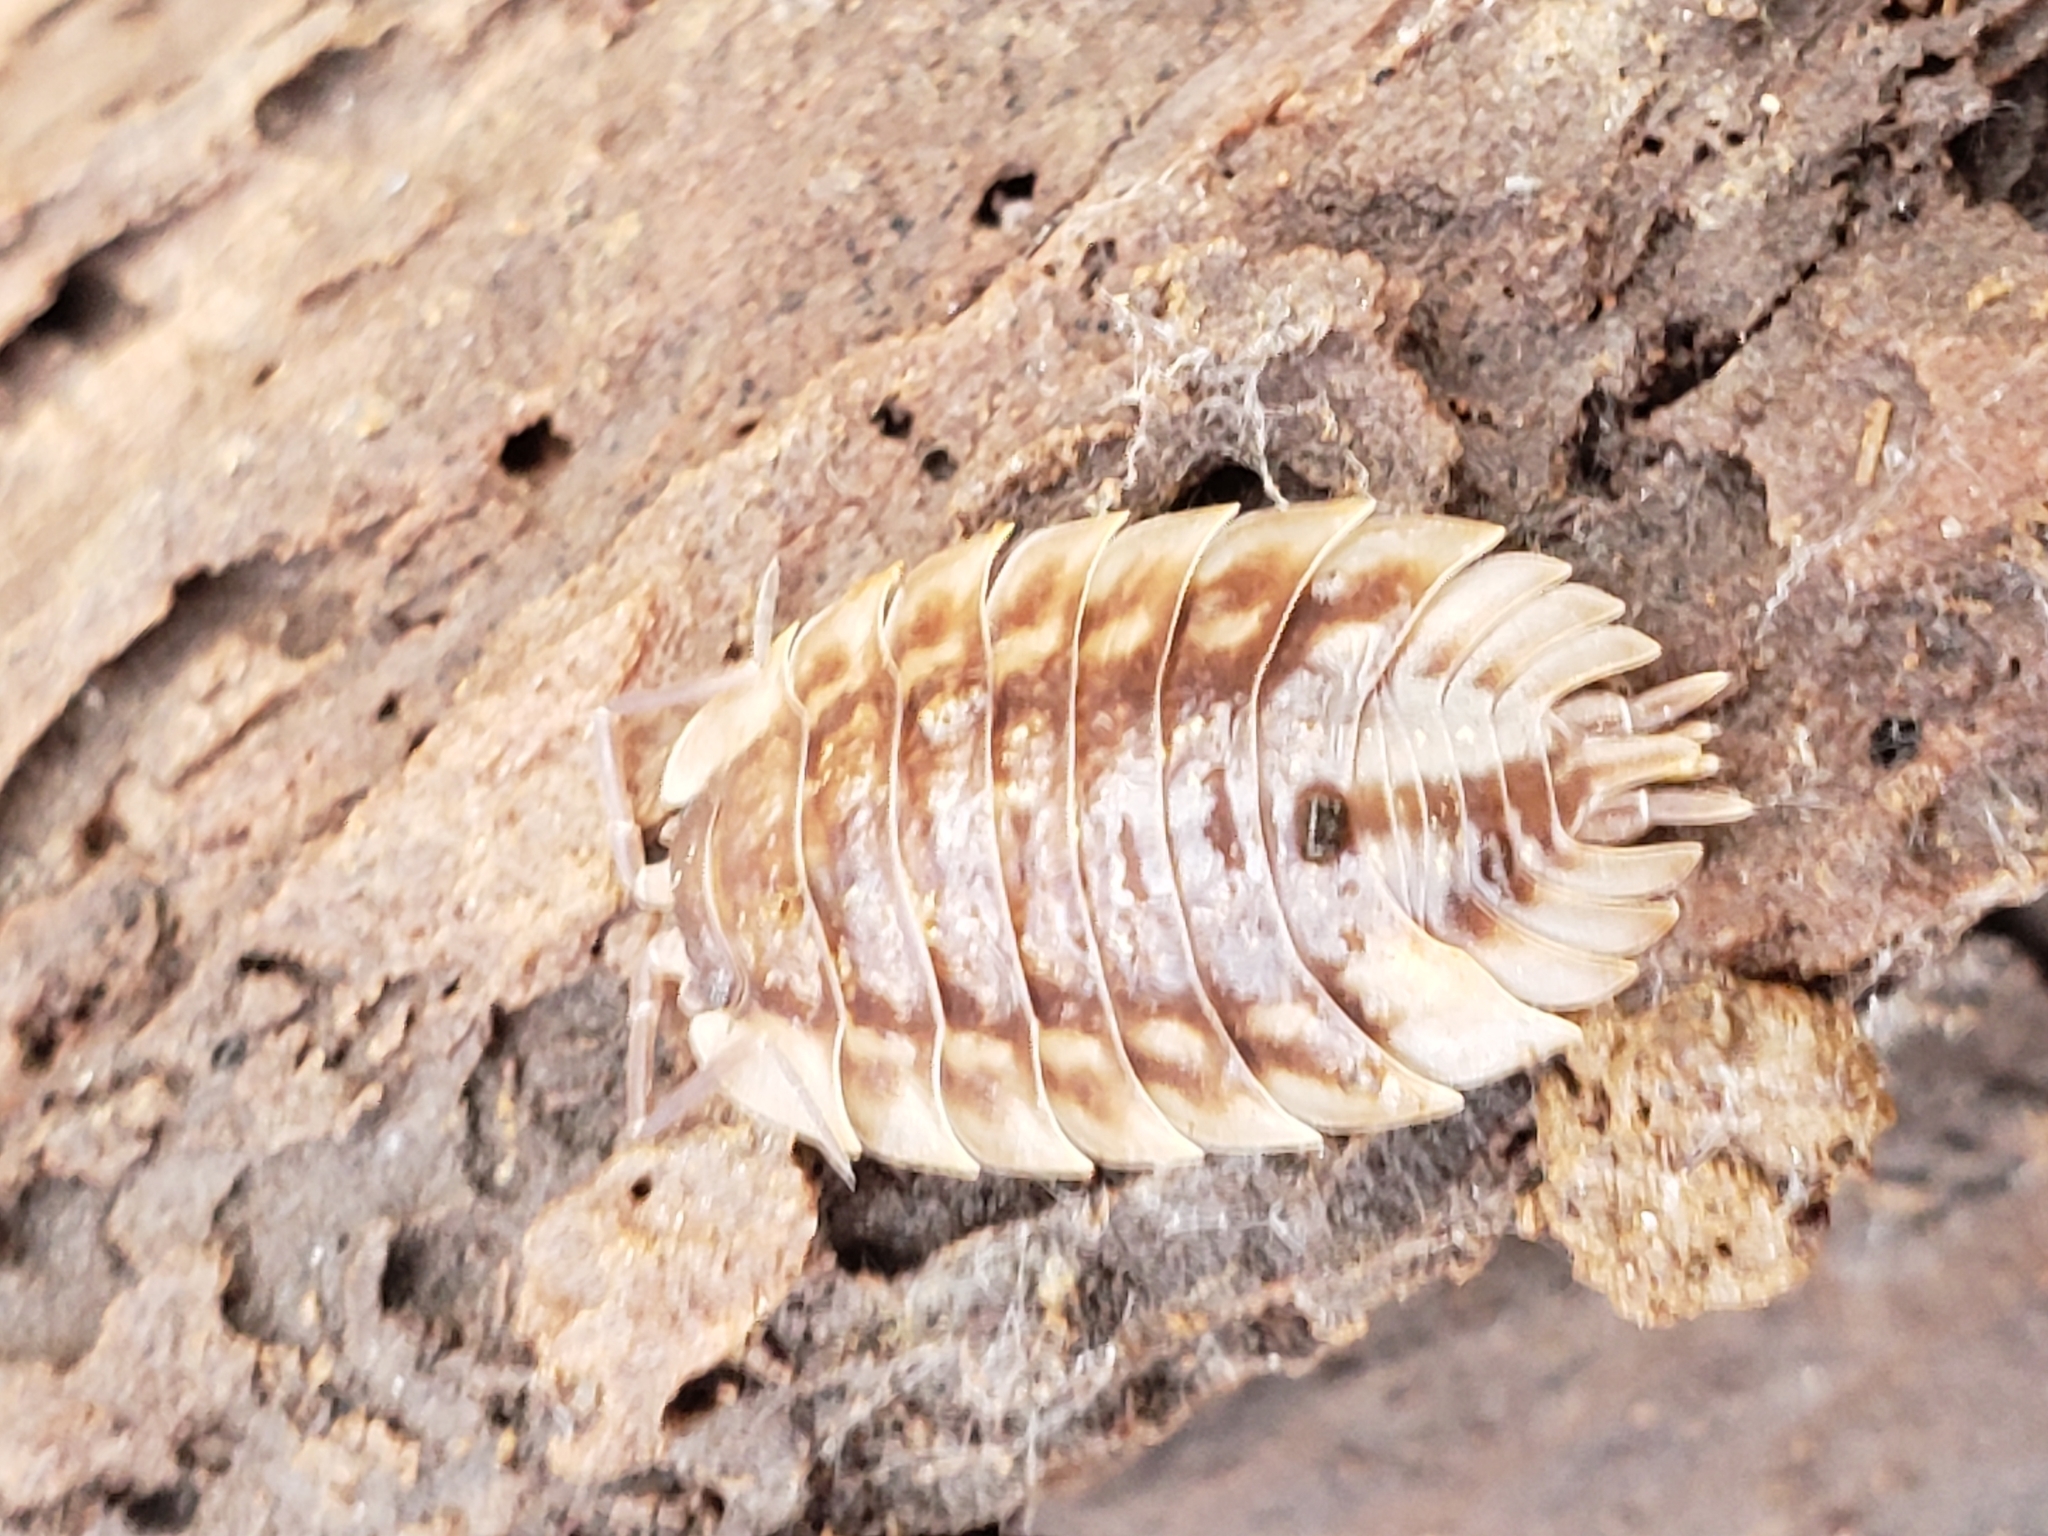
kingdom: Animalia
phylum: Arthropoda
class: Malacostraca
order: Isopoda
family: Oniscidae
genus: Oniscus
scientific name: Oniscus asellus
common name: Common shiny woodlouse
